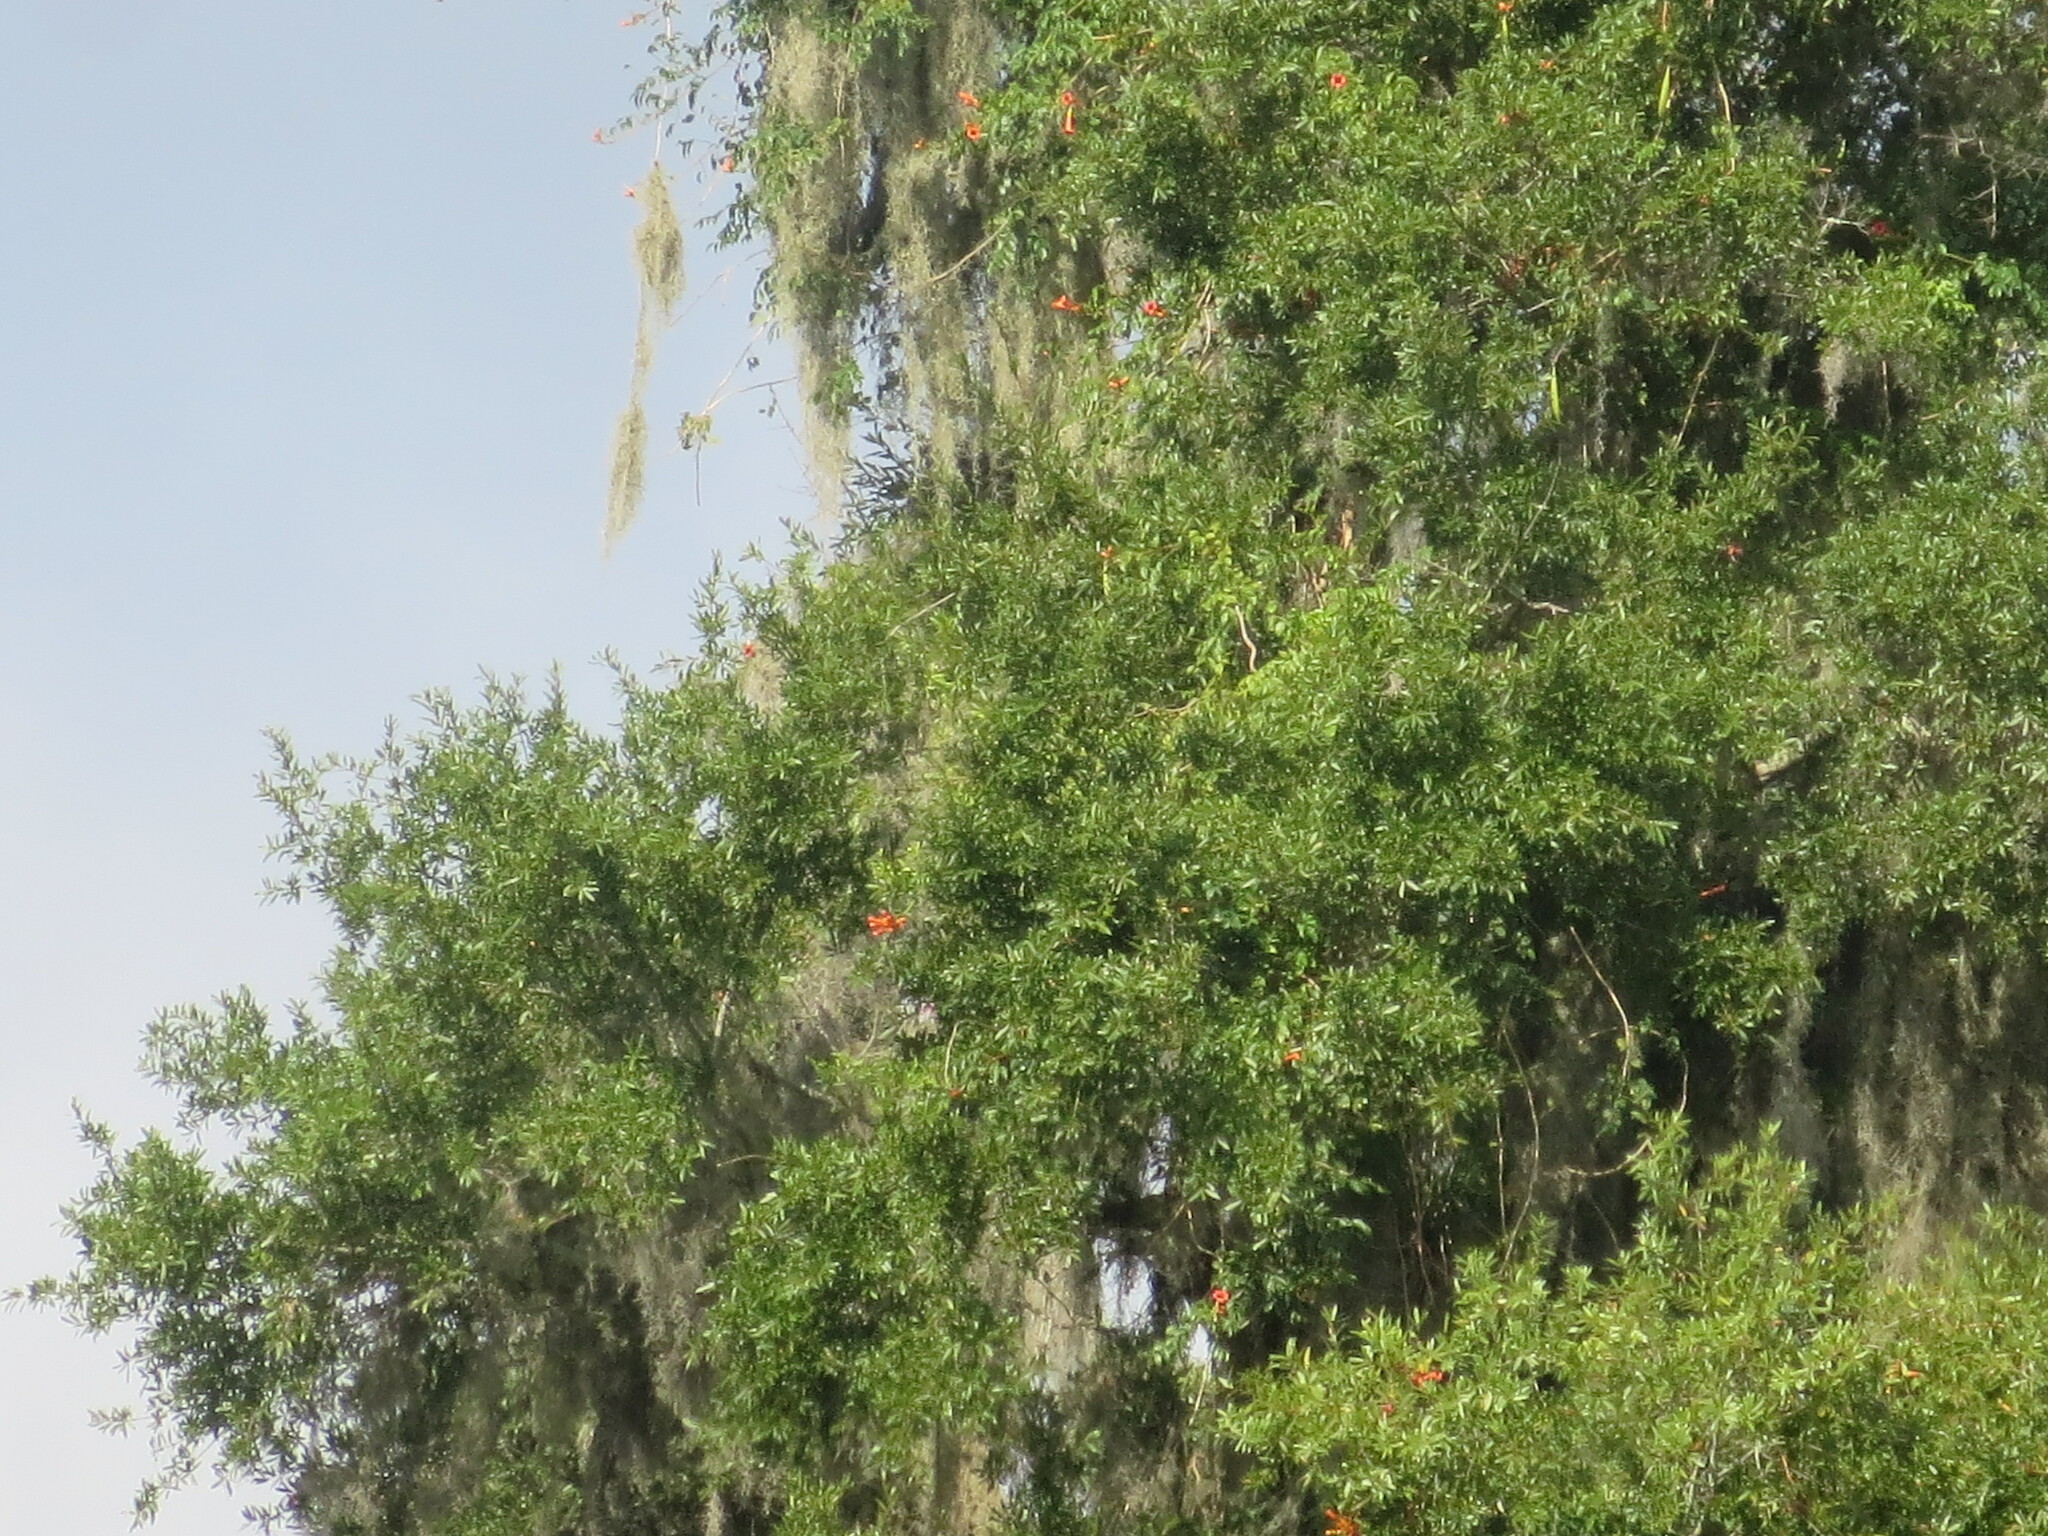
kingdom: Plantae
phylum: Tracheophyta
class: Magnoliopsida
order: Lamiales
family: Bignoniaceae
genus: Campsis
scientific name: Campsis radicans
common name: Trumpet-creeper
